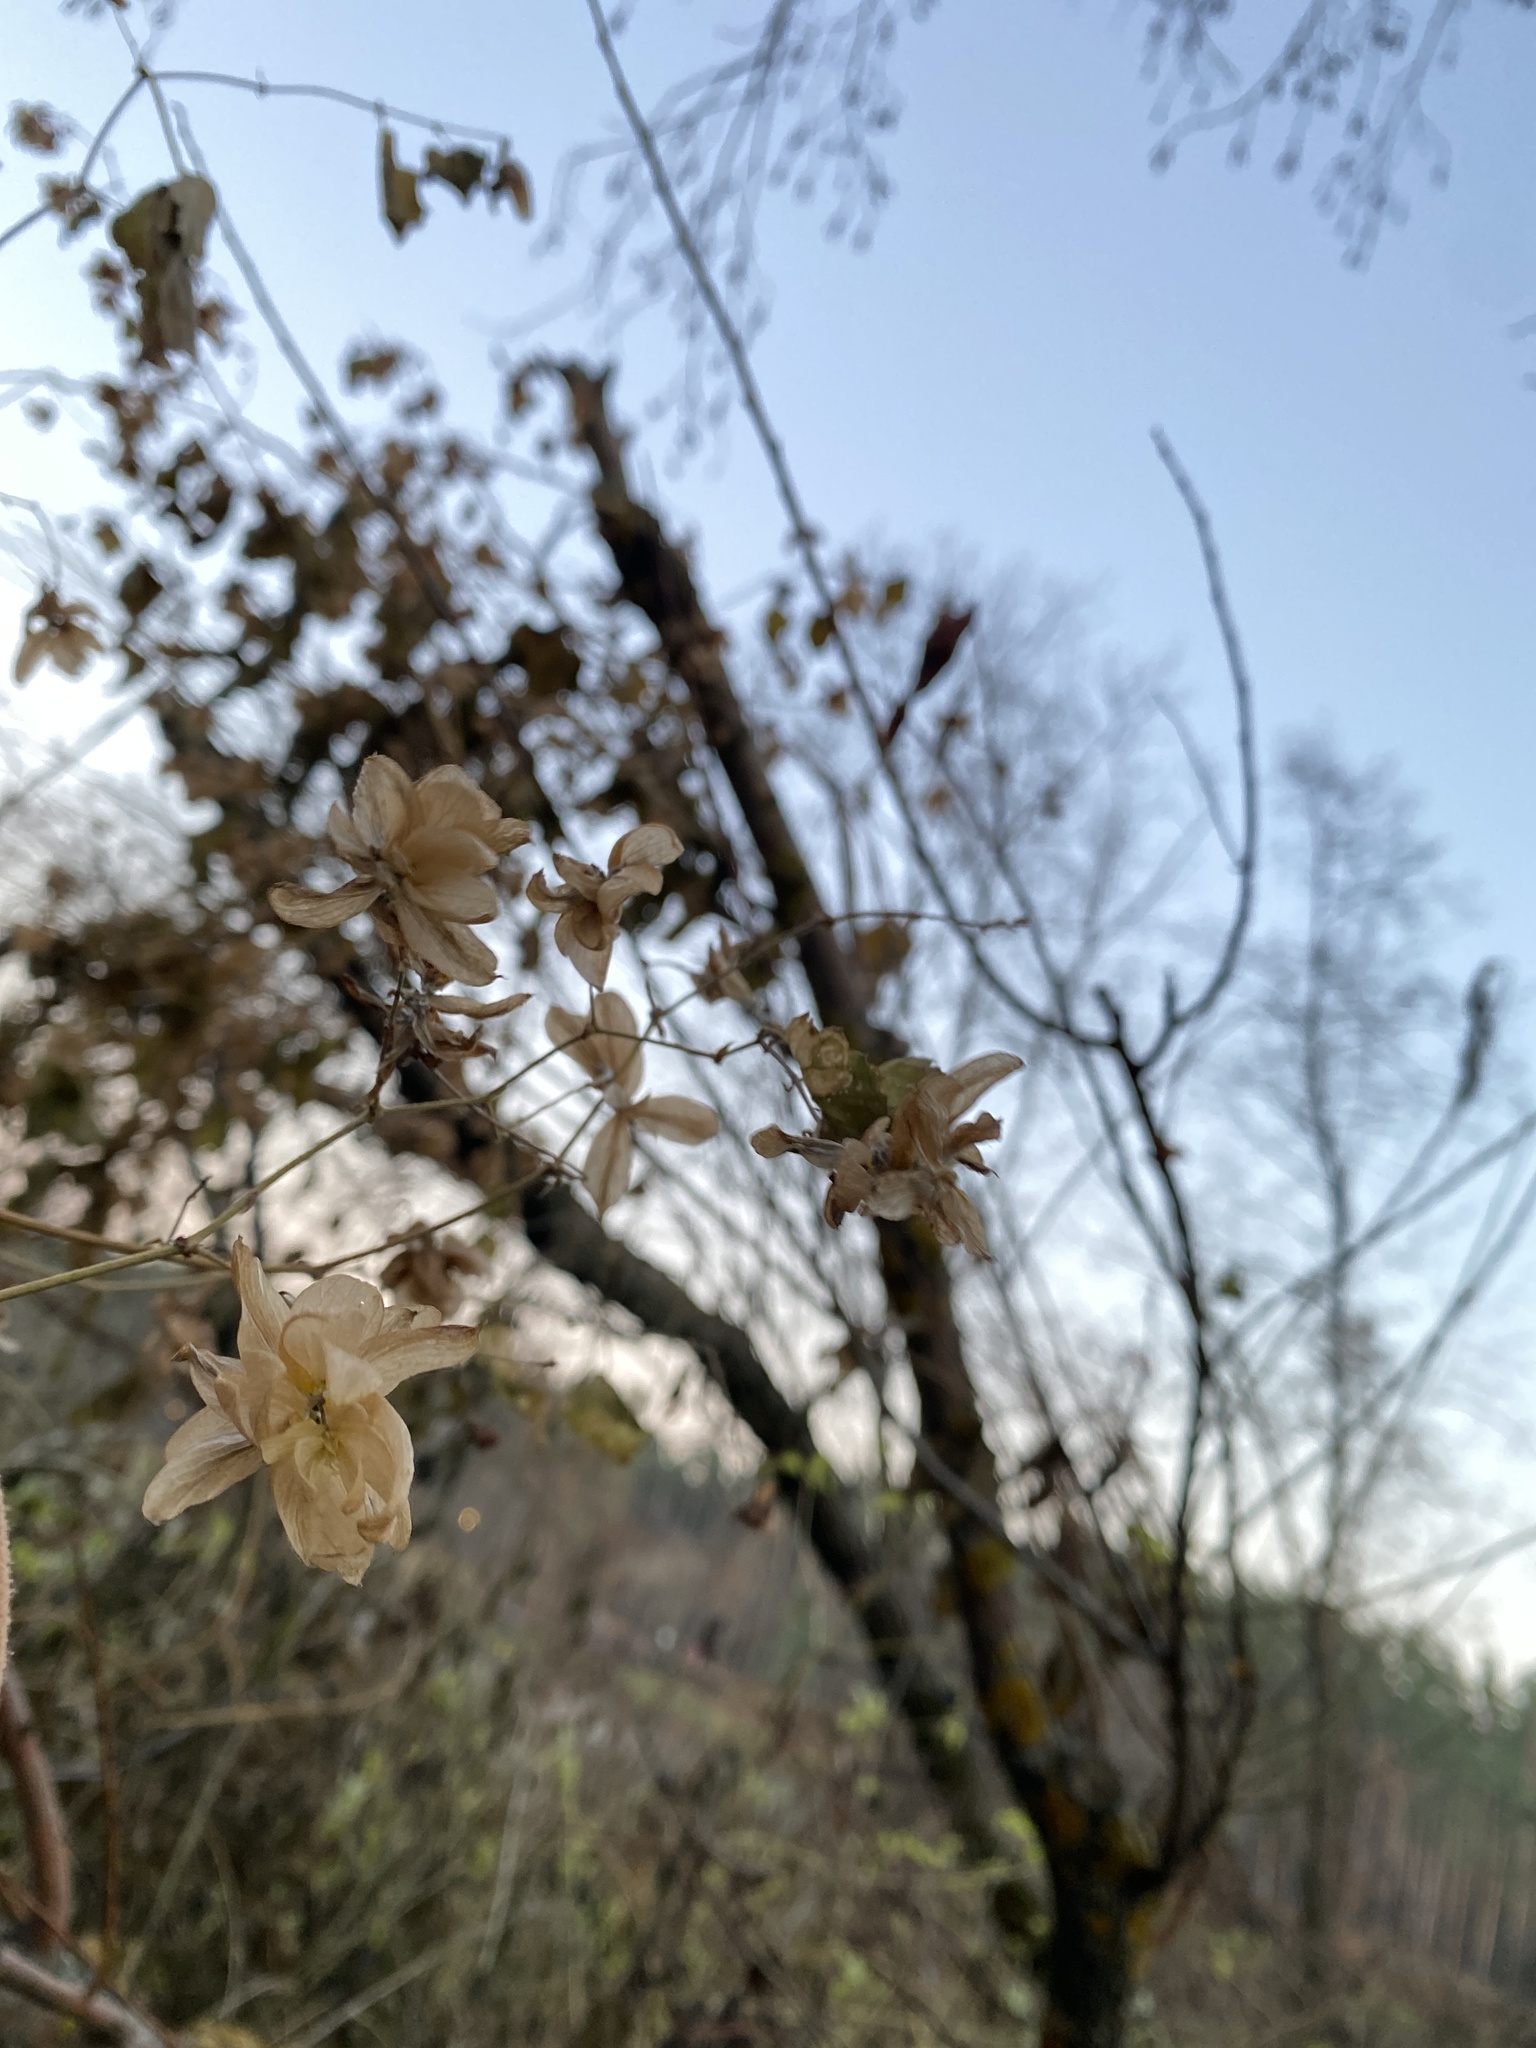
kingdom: Plantae
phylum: Tracheophyta
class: Magnoliopsida
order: Rosales
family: Cannabaceae
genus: Humulus
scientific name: Humulus lupulus
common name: Hop
